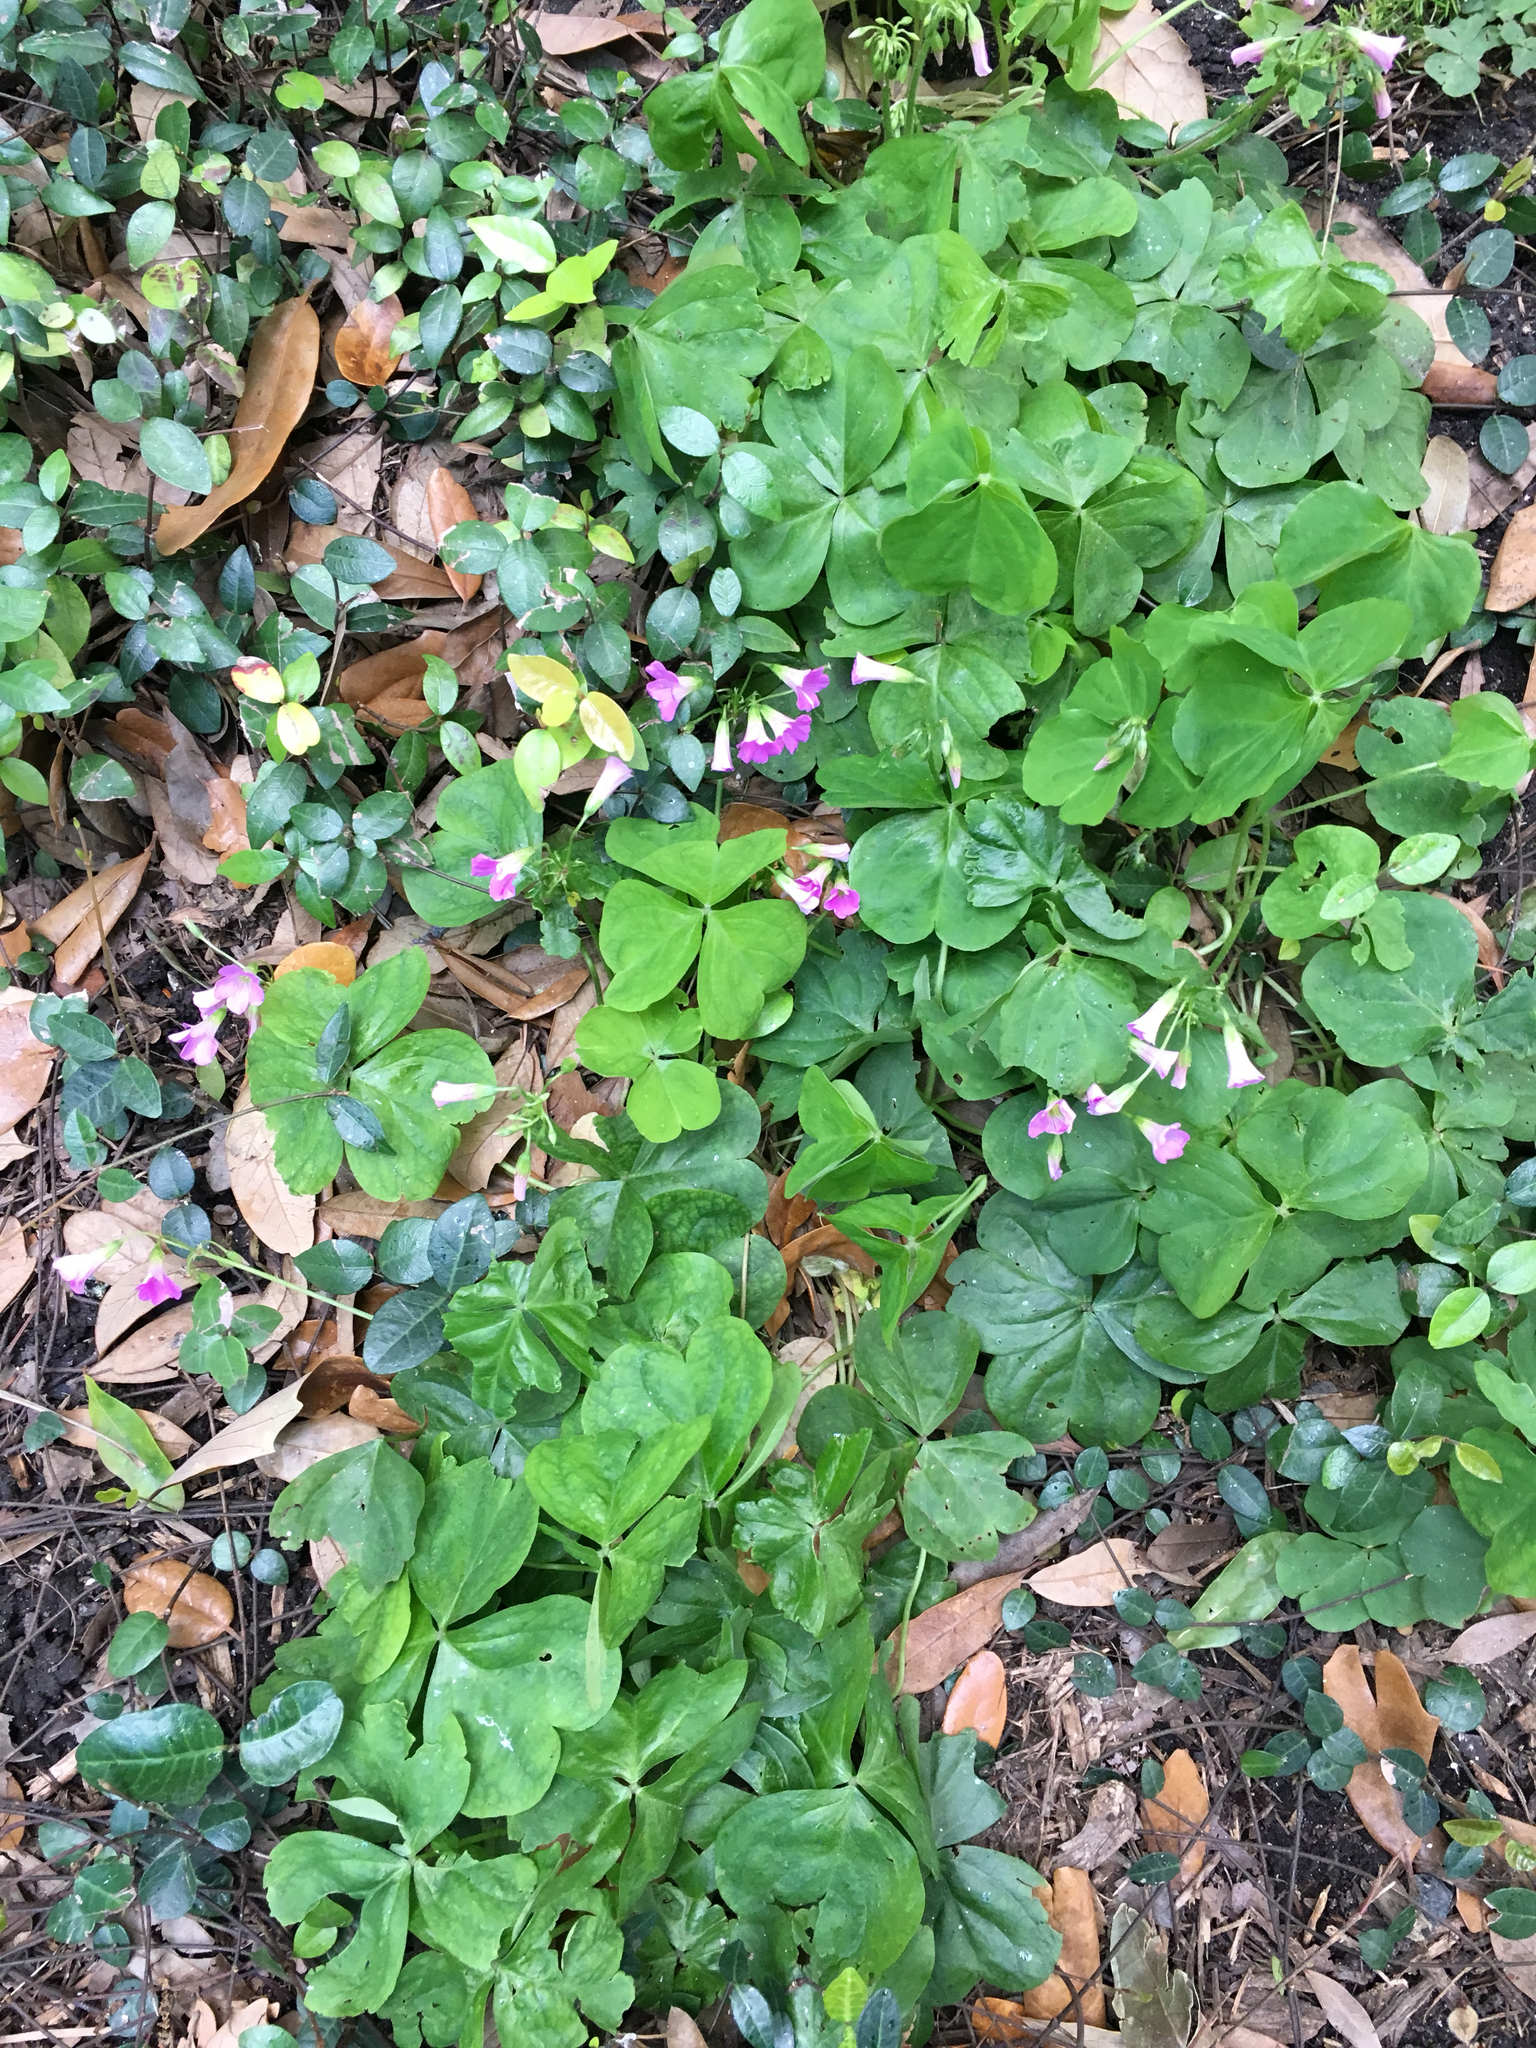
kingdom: Plantae
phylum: Tracheophyta
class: Magnoliopsida
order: Oxalidales
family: Oxalidaceae
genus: Oxalis
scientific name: Oxalis debilis
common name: Large-flowered pink-sorrel
